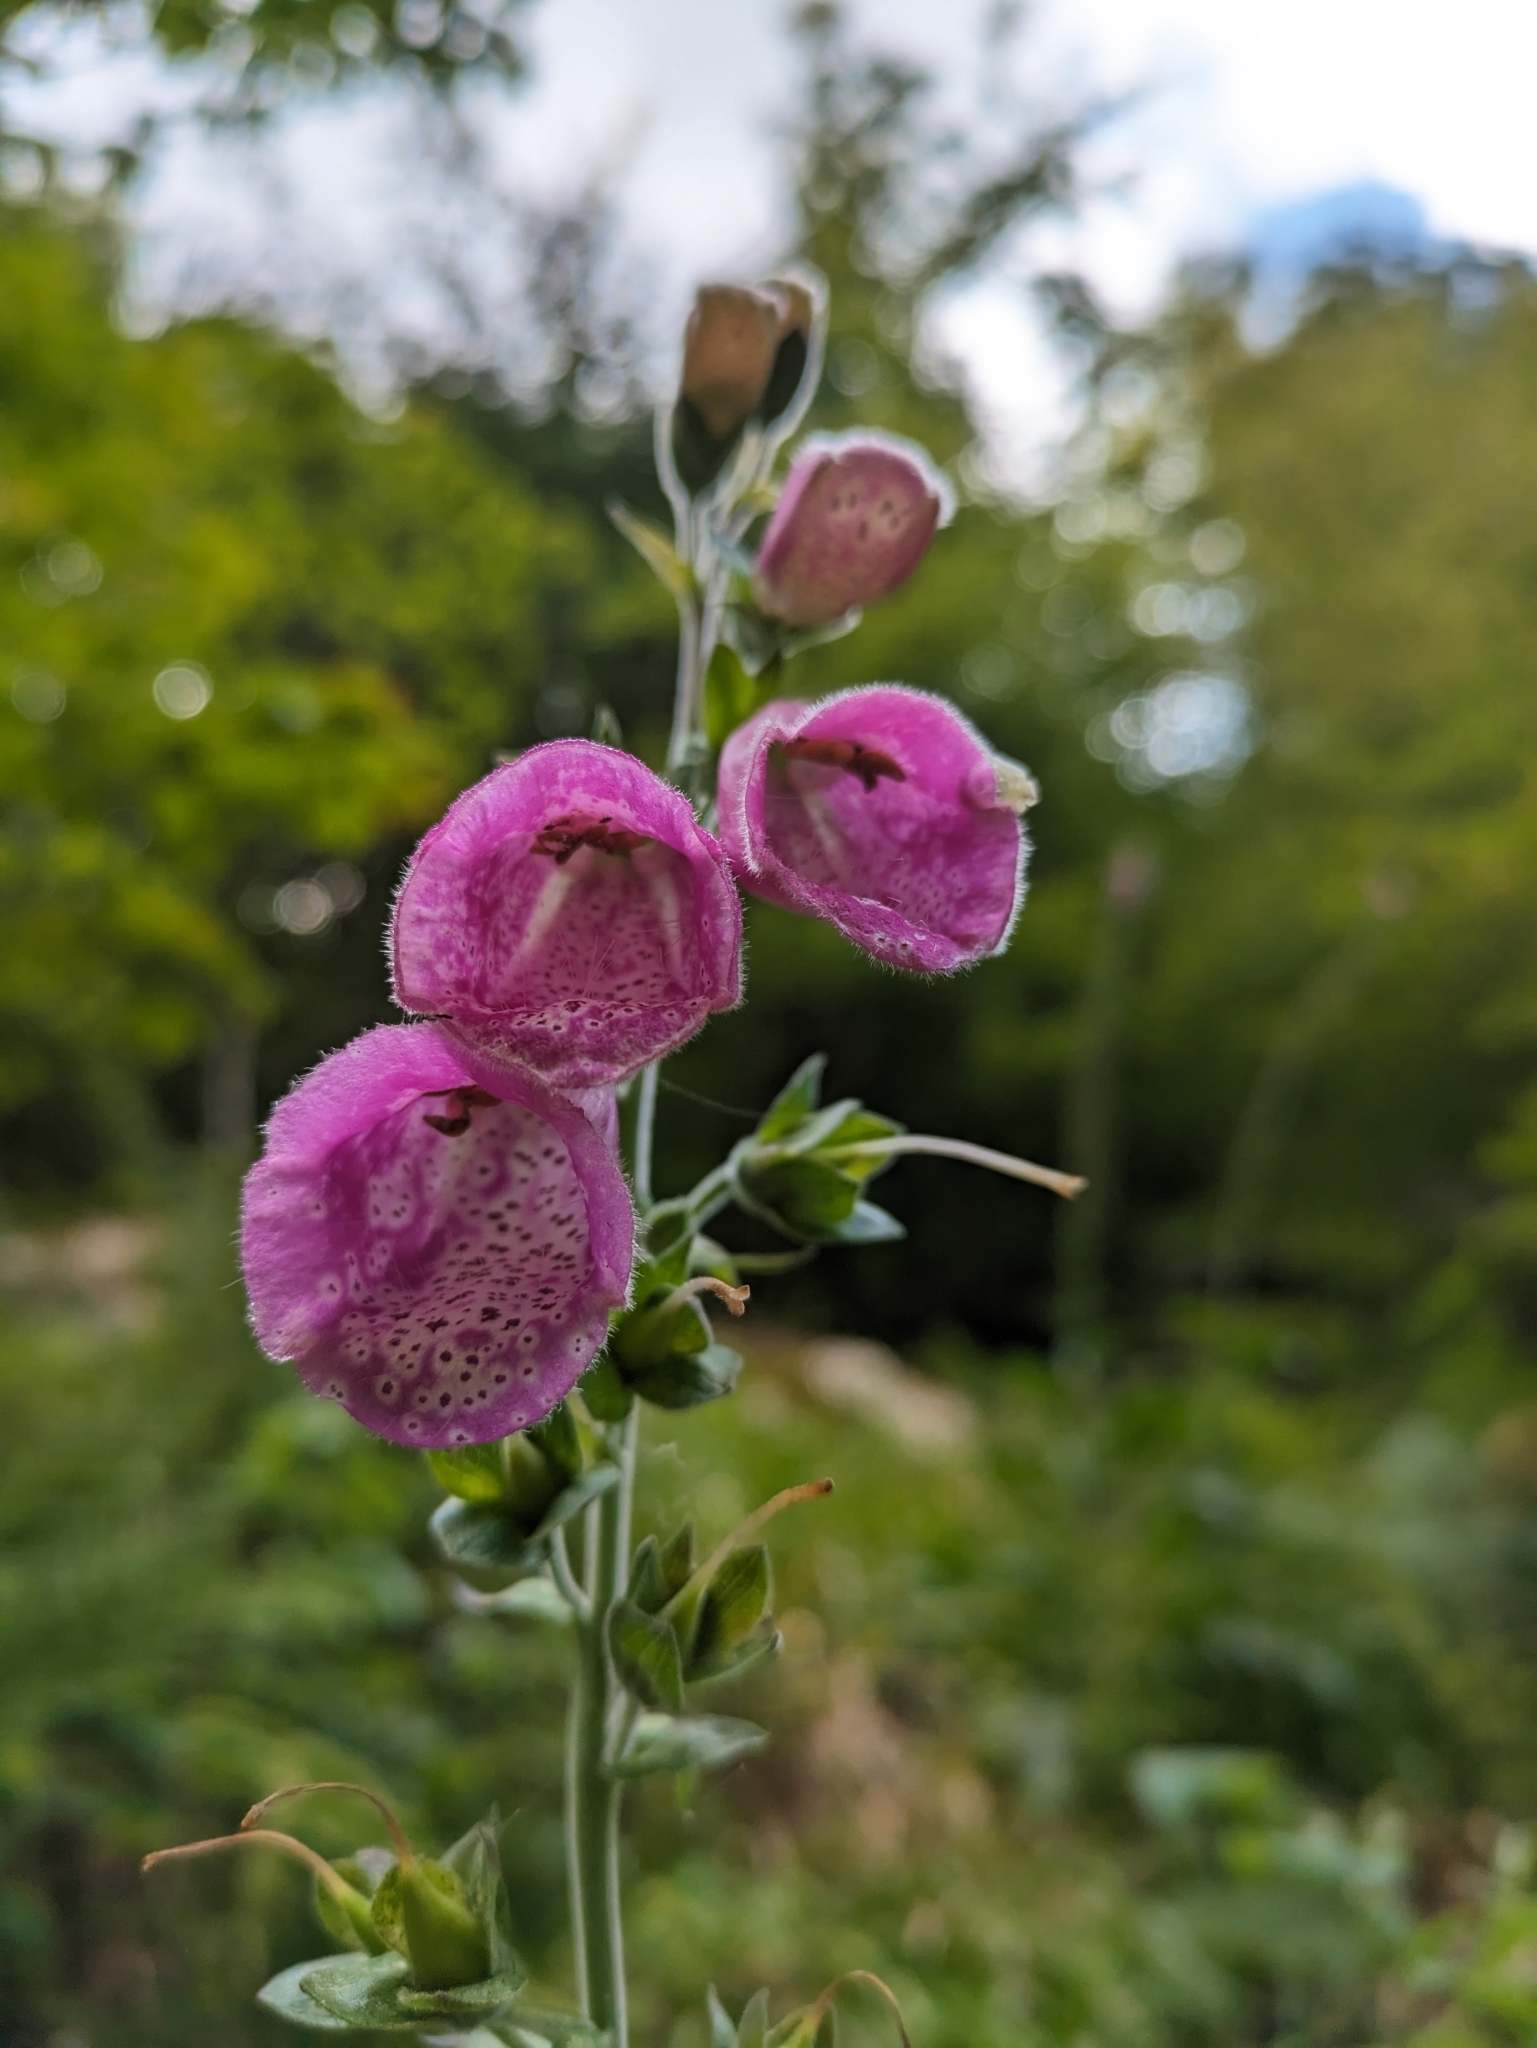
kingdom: Plantae
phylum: Tracheophyta
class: Magnoliopsida
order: Lamiales
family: Plantaginaceae
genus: Digitalis
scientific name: Digitalis purpurea
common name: Foxglove
